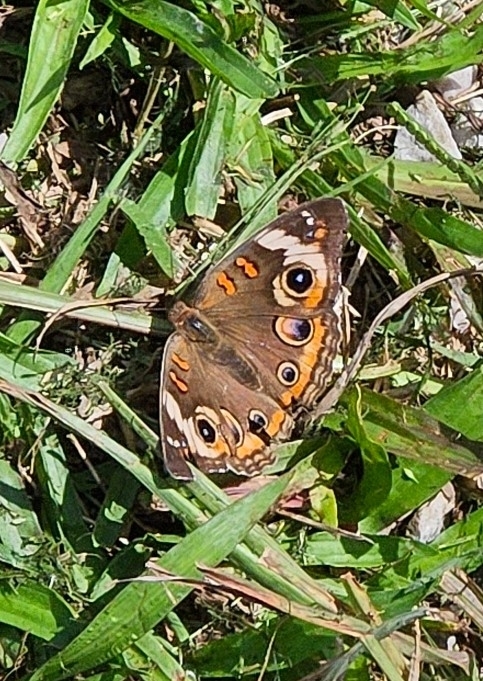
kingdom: Animalia
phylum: Arthropoda
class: Insecta
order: Lepidoptera
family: Nymphalidae
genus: Junonia
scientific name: Junonia coenia
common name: Common buckeye
